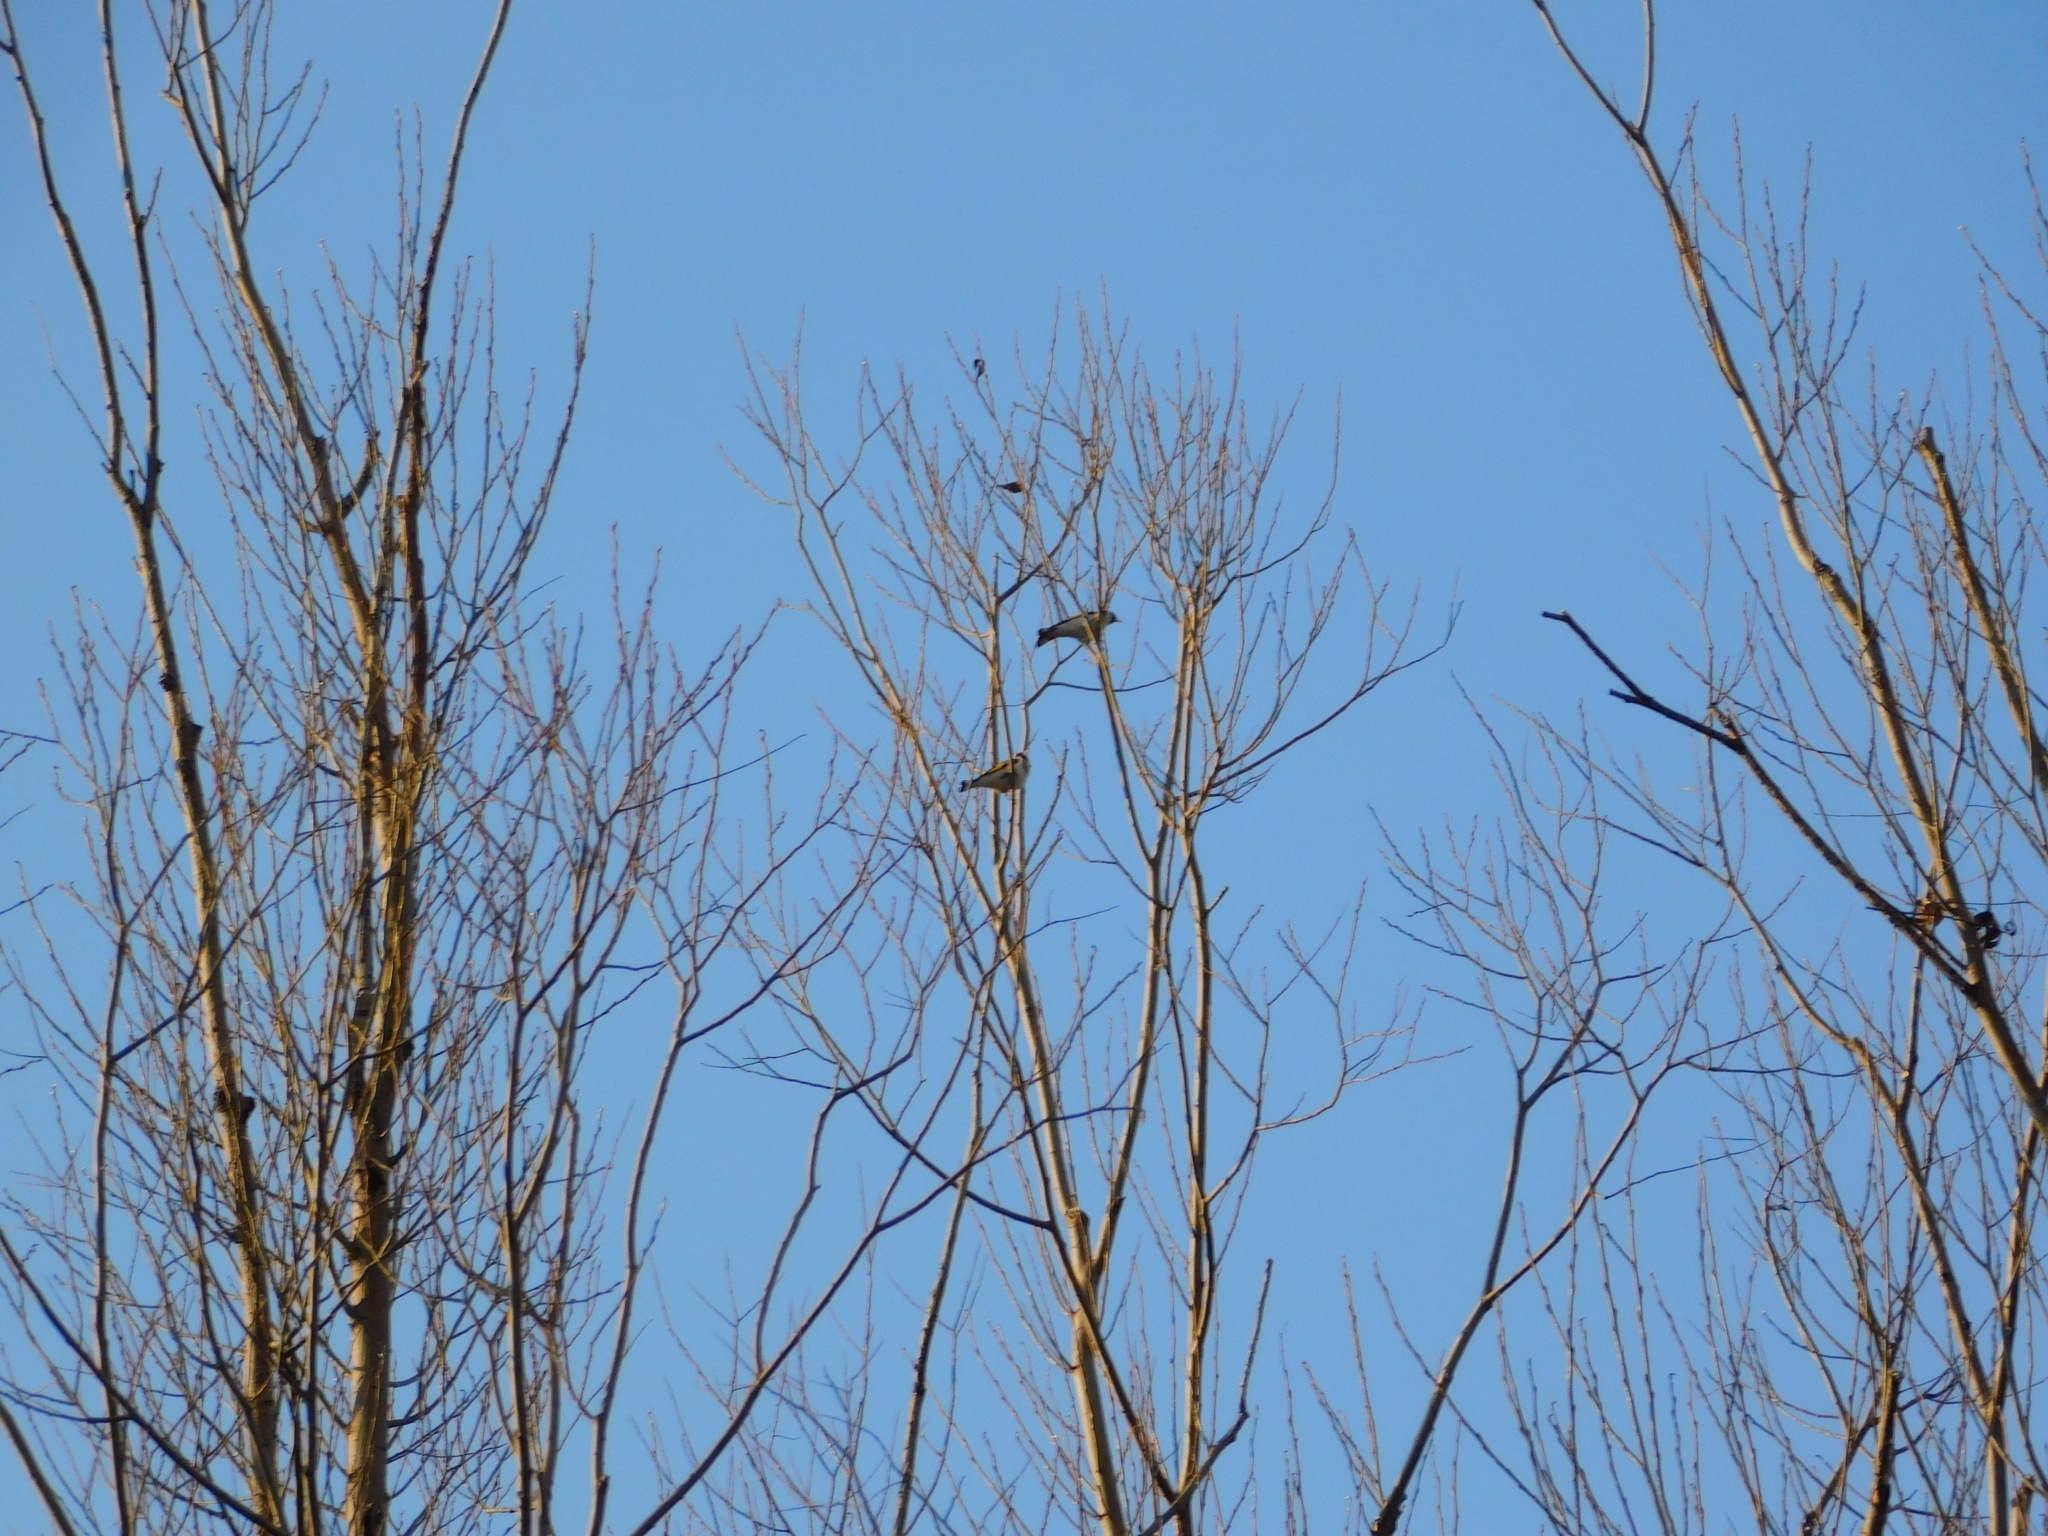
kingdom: Animalia
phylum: Chordata
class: Aves
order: Passeriformes
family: Fringillidae
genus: Carduelis
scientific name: Carduelis carduelis
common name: European goldfinch
